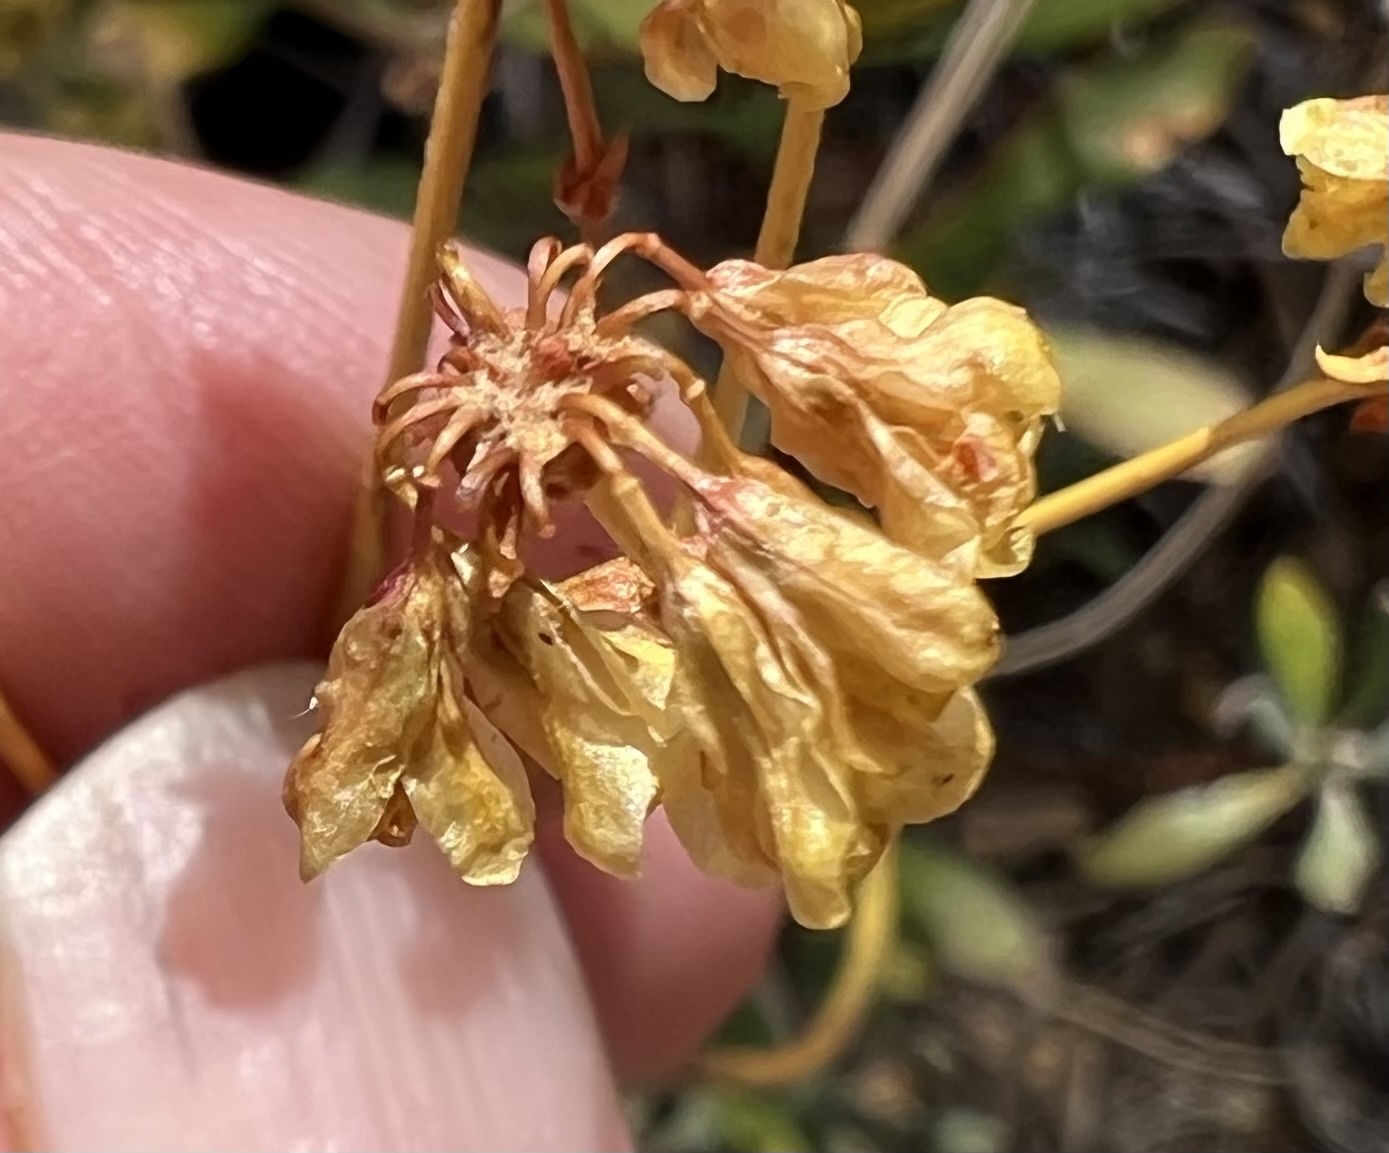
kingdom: Plantae
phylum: Tracheophyta
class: Magnoliopsida
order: Caryophyllales
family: Polygonaceae
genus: Eriogonum
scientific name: Eriogonum umbellatum
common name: Sulfur-buckwheat
